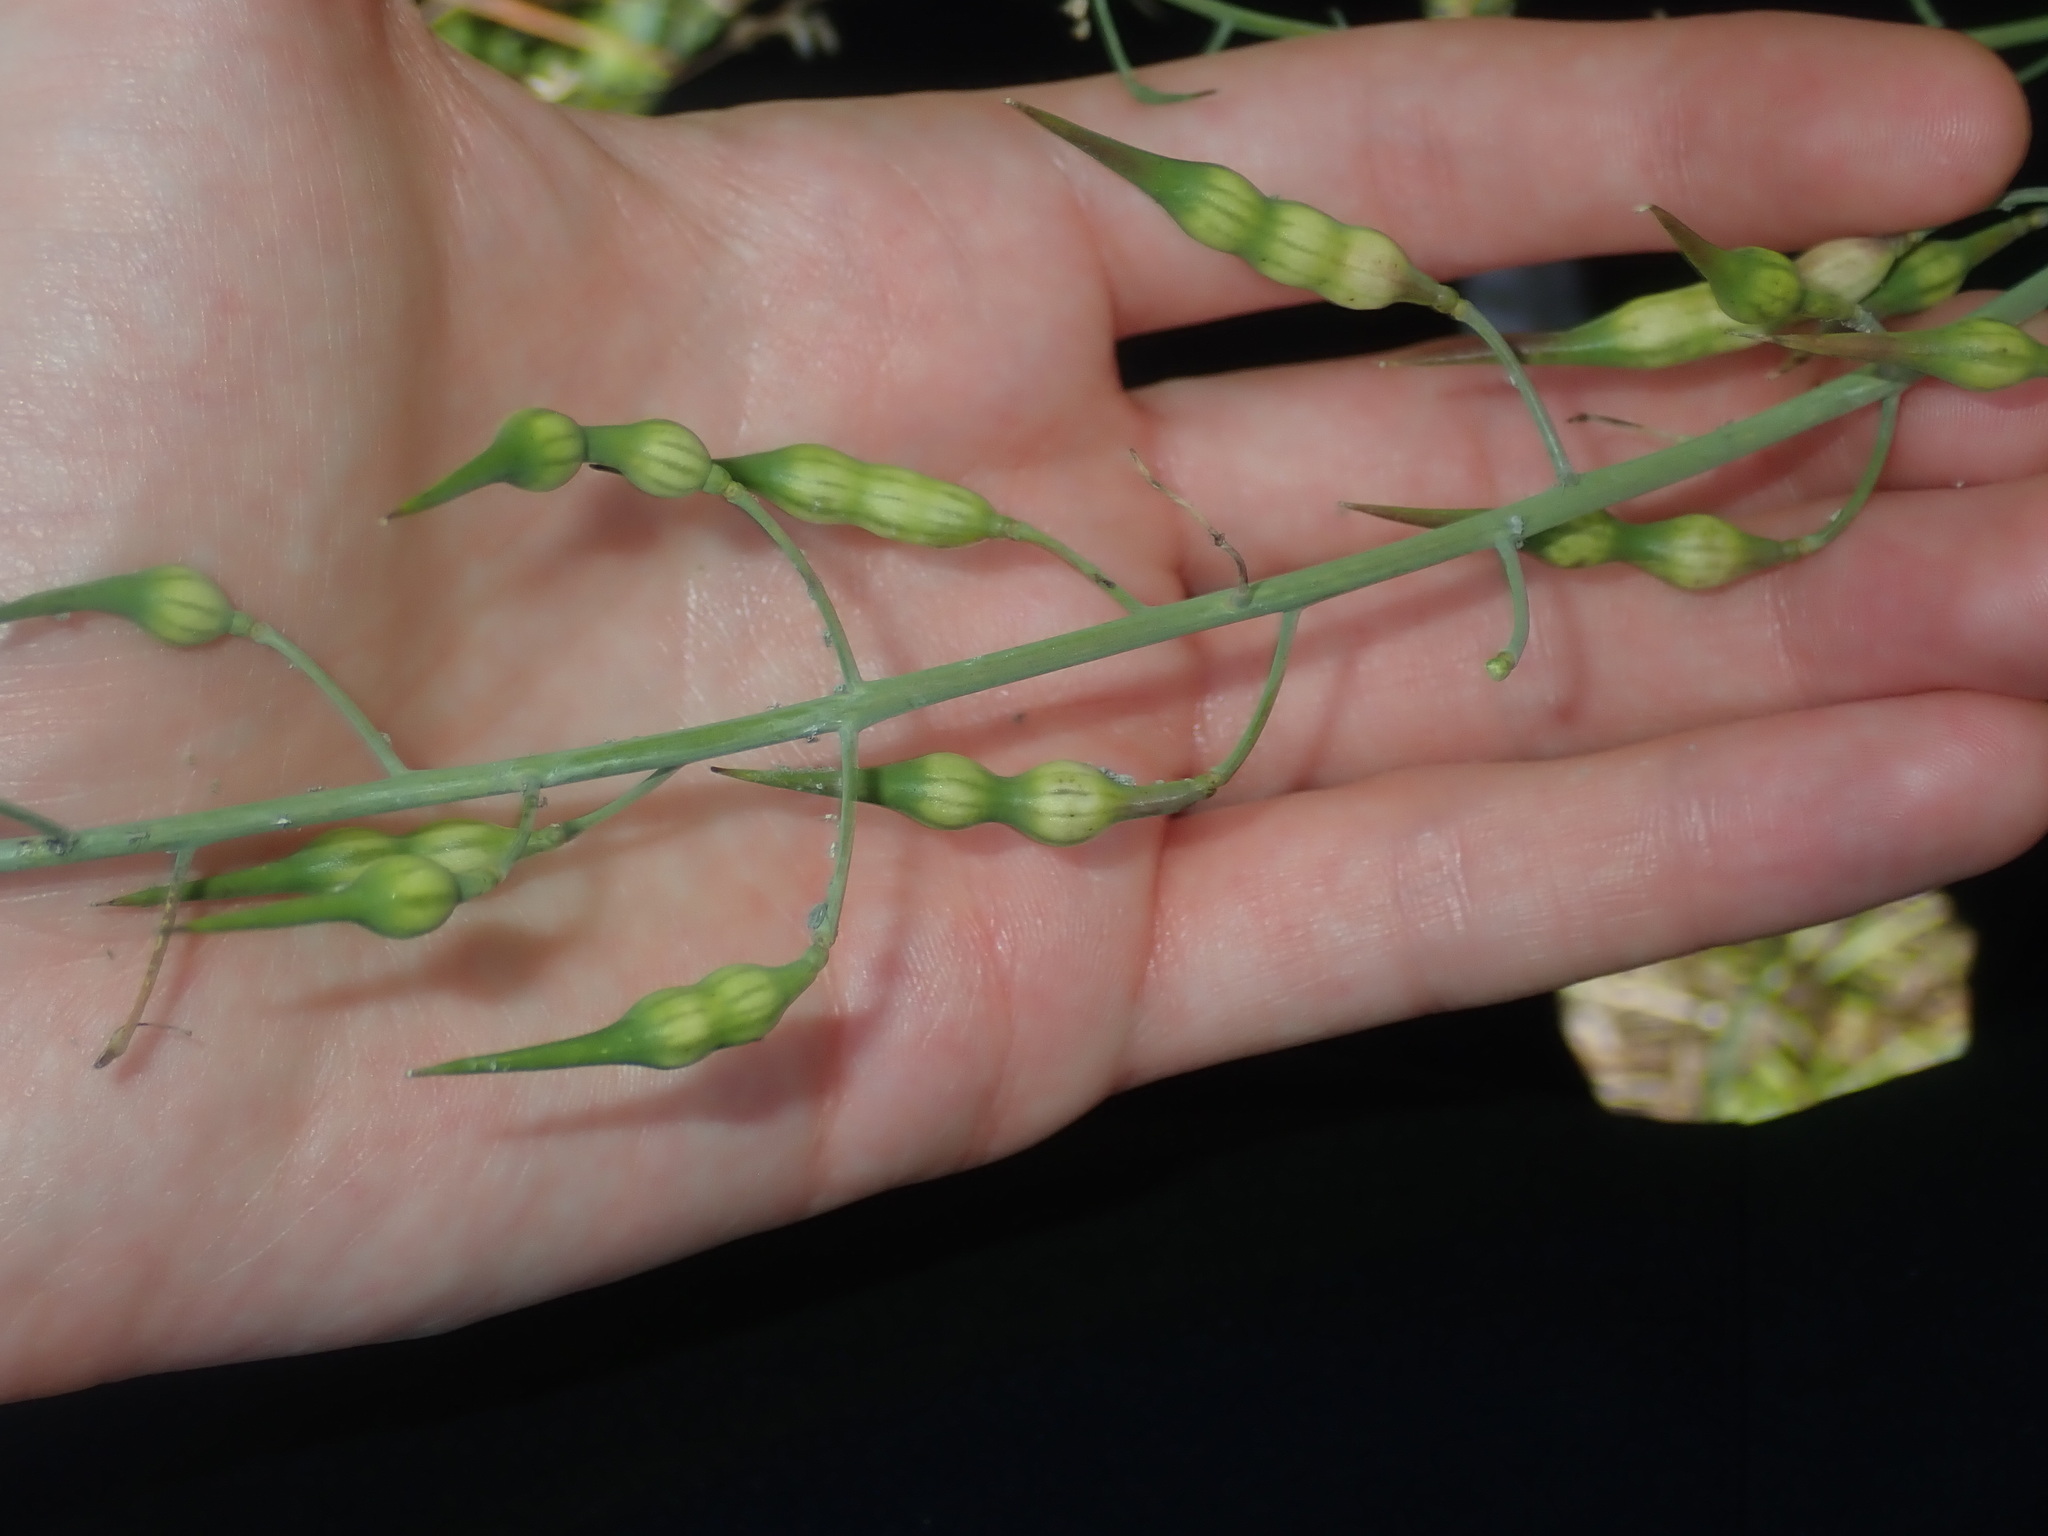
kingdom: Plantae
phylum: Tracheophyta
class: Magnoliopsida
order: Brassicales
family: Brassicaceae
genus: Raphanus
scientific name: Raphanus raphanistrum
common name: Wild radish
